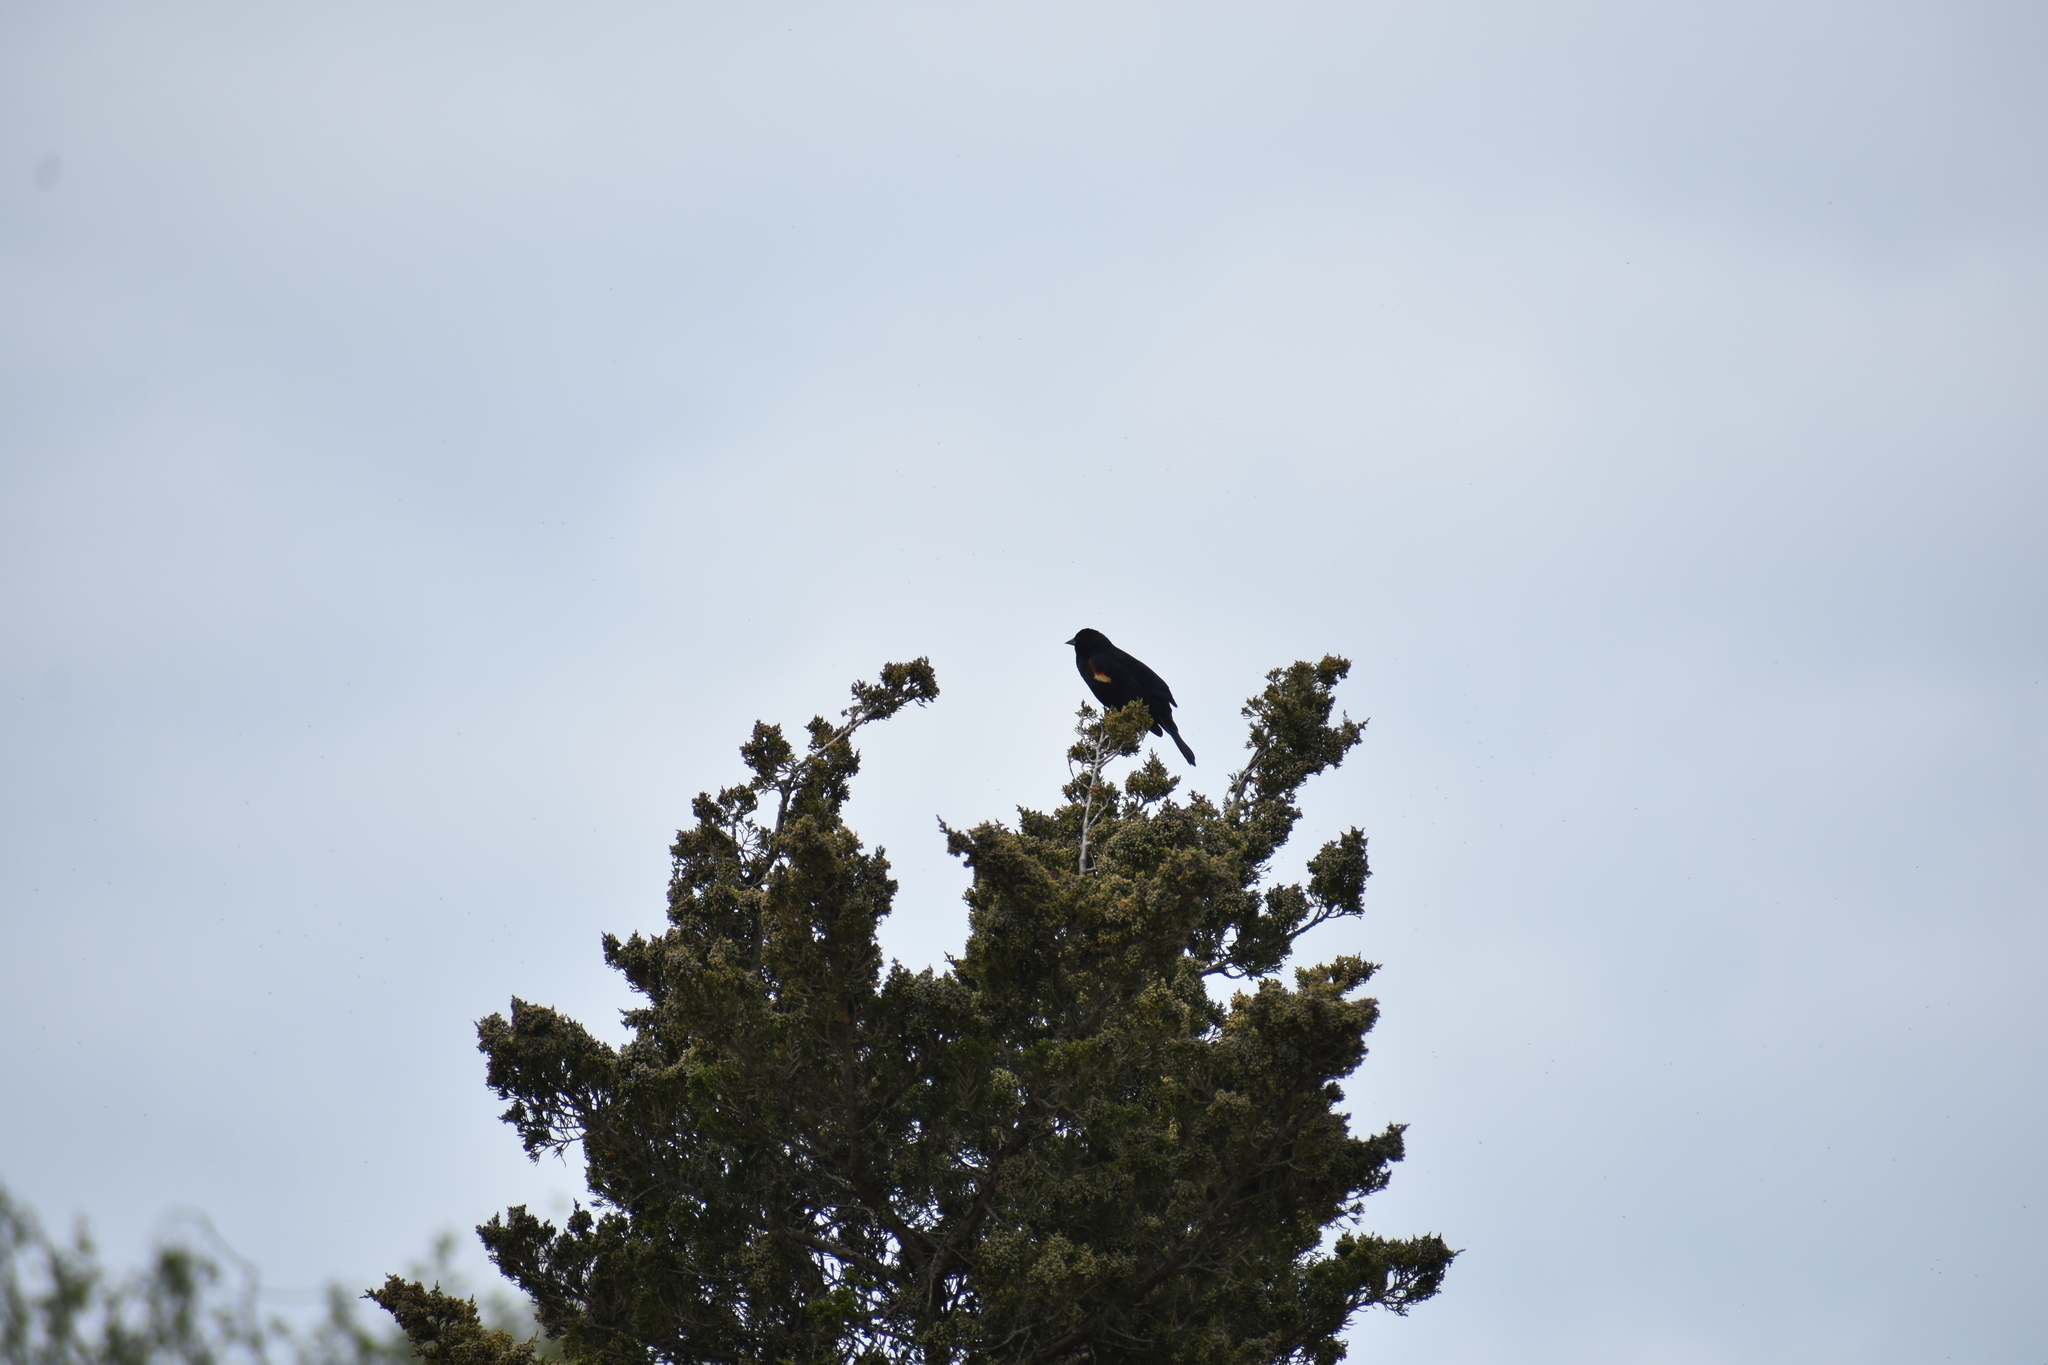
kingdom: Animalia
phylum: Chordata
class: Aves
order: Passeriformes
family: Icteridae
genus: Agelaius
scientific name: Agelaius phoeniceus
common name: Red-winged blackbird
